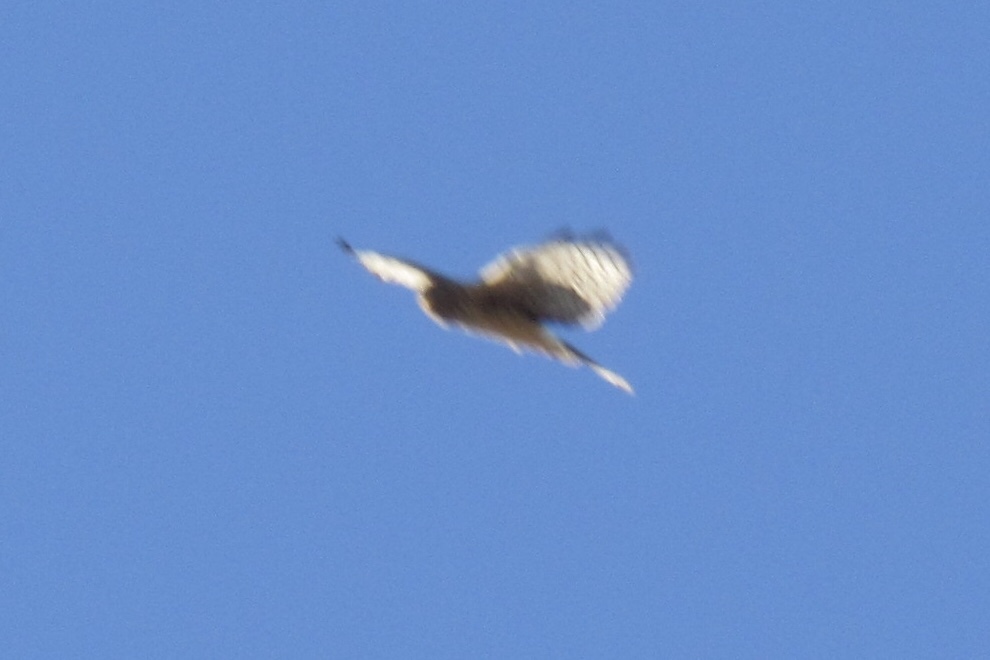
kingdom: Animalia
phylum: Chordata
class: Aves
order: Accipitriformes
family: Accipitridae
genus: Circus
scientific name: Circus cyaneus
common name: Hen harrier
